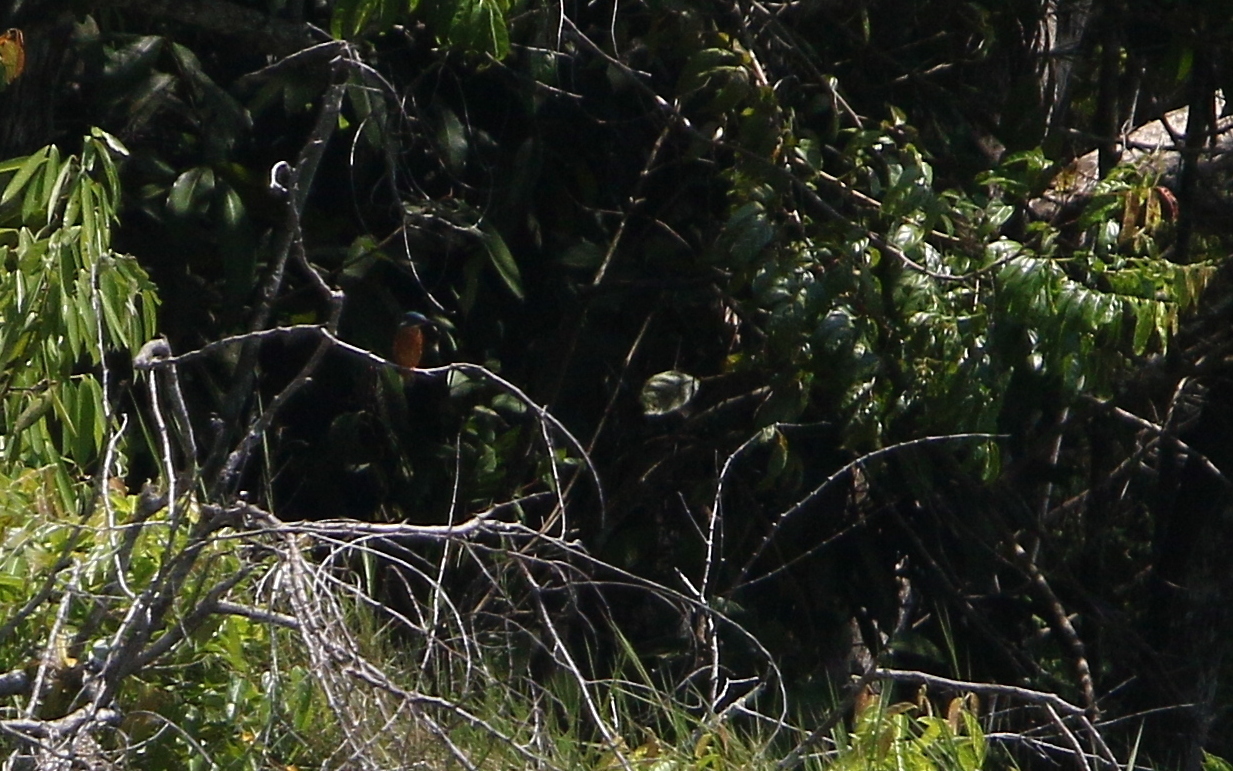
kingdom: Animalia
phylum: Chordata
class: Aves
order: Coraciiformes
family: Alcedinidae
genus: Alcedo
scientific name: Alcedo meninting
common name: Blue-eared kingfisher
